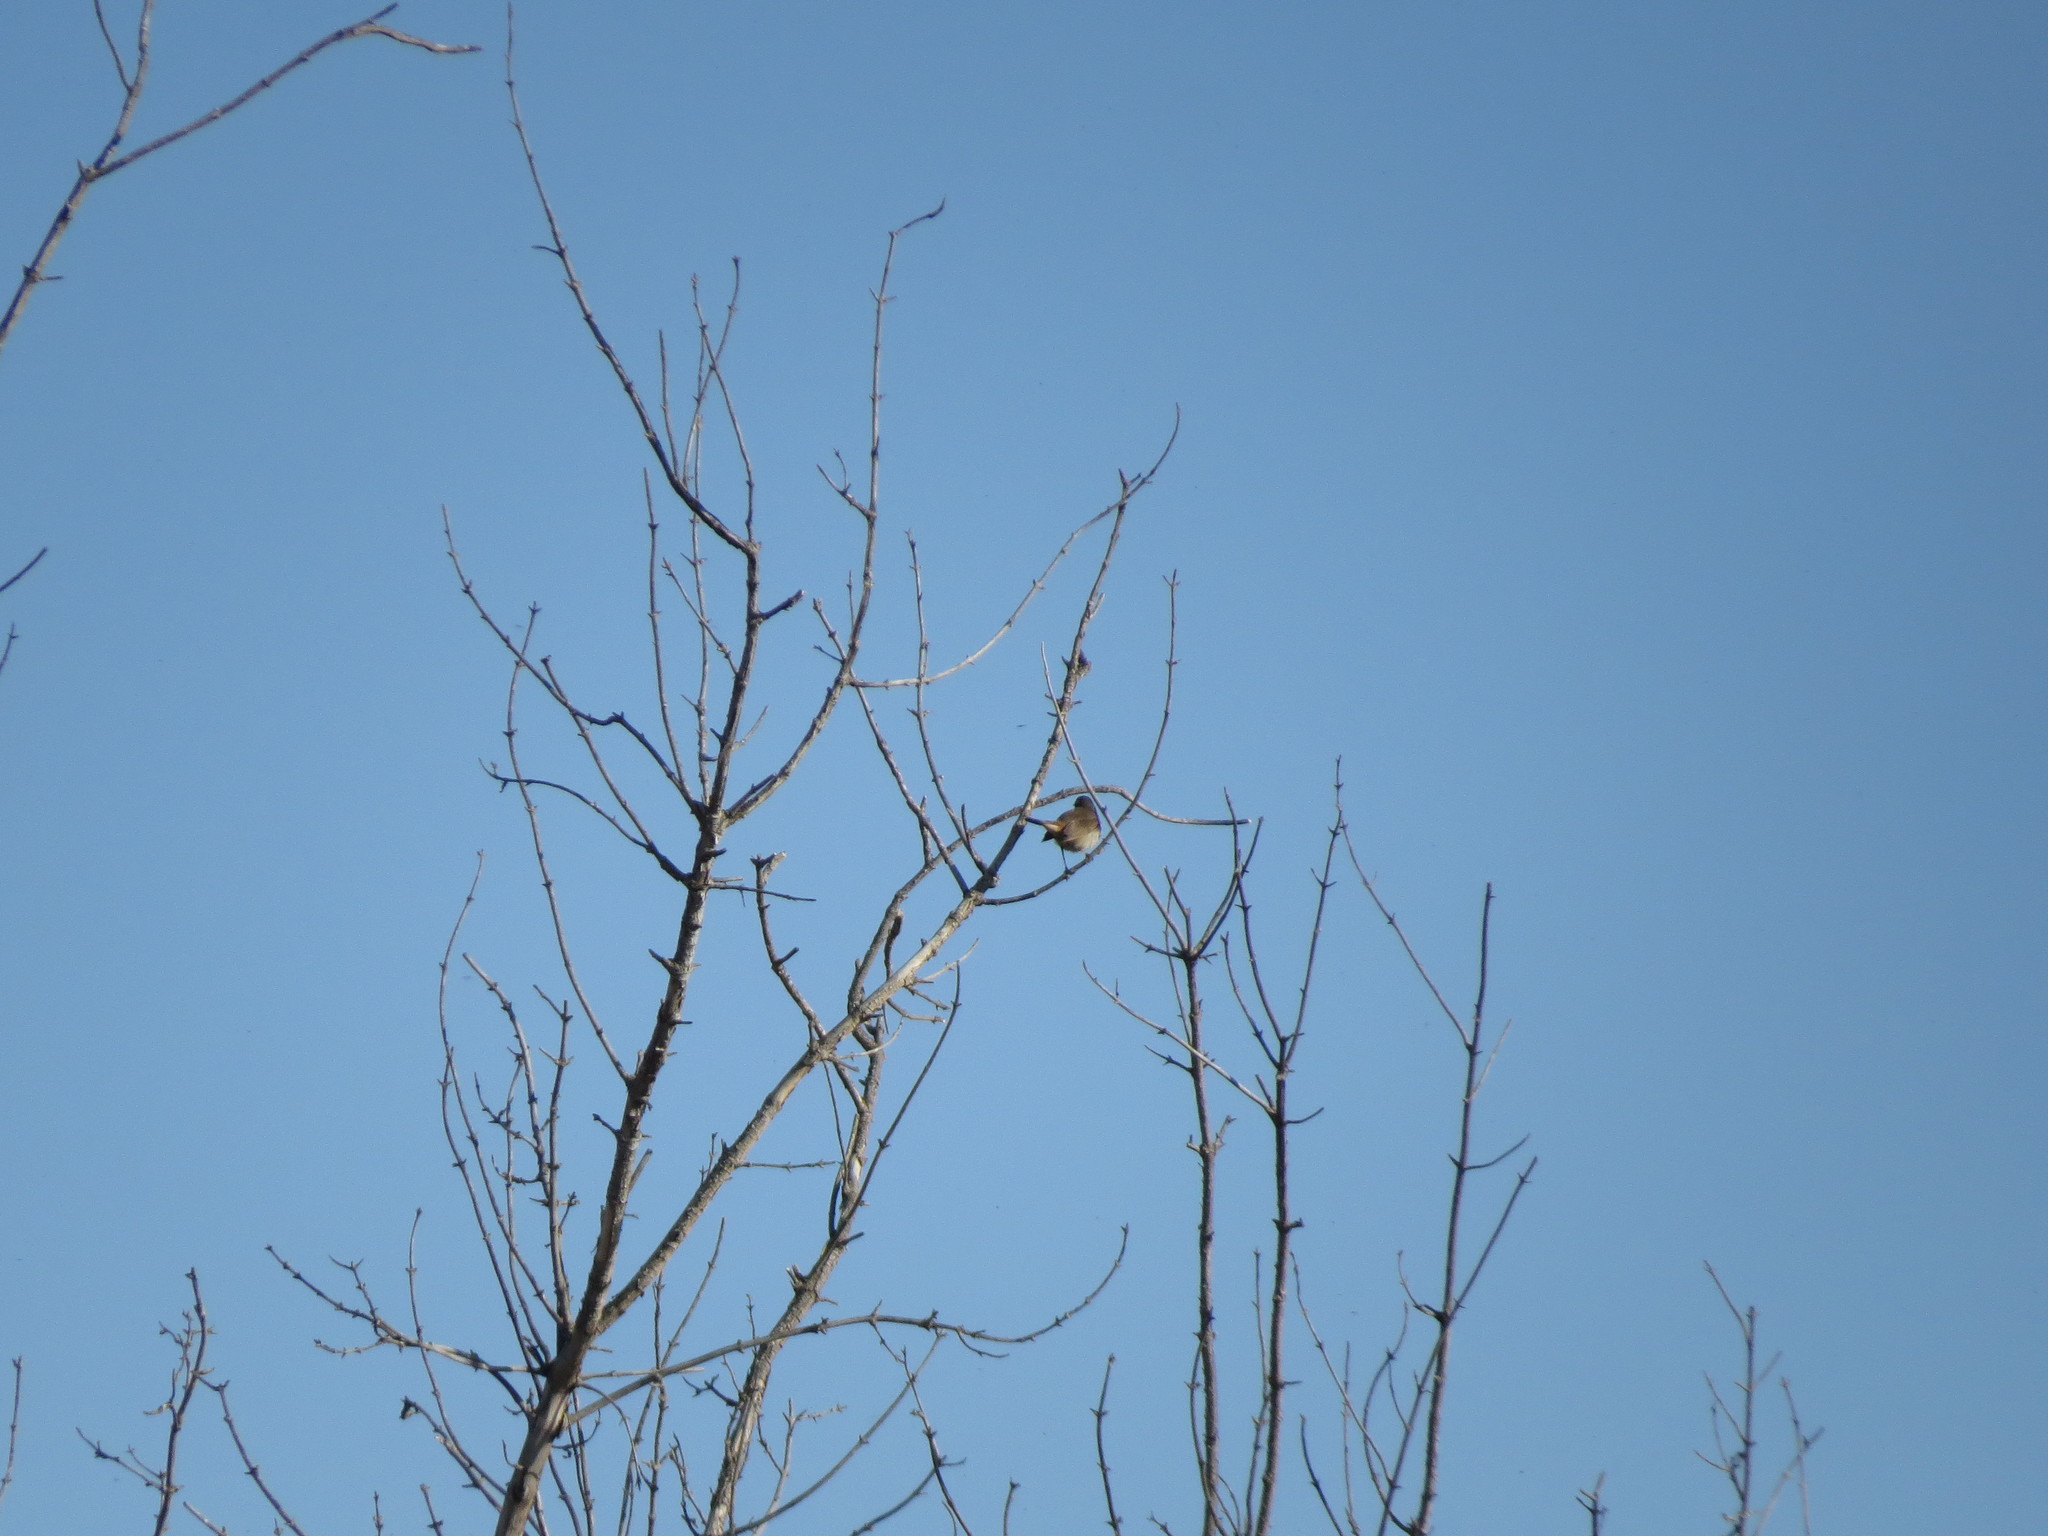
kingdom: Animalia
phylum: Chordata
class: Aves
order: Passeriformes
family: Muscicapidae
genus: Luscinia
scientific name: Luscinia svecica
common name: Bluethroat
